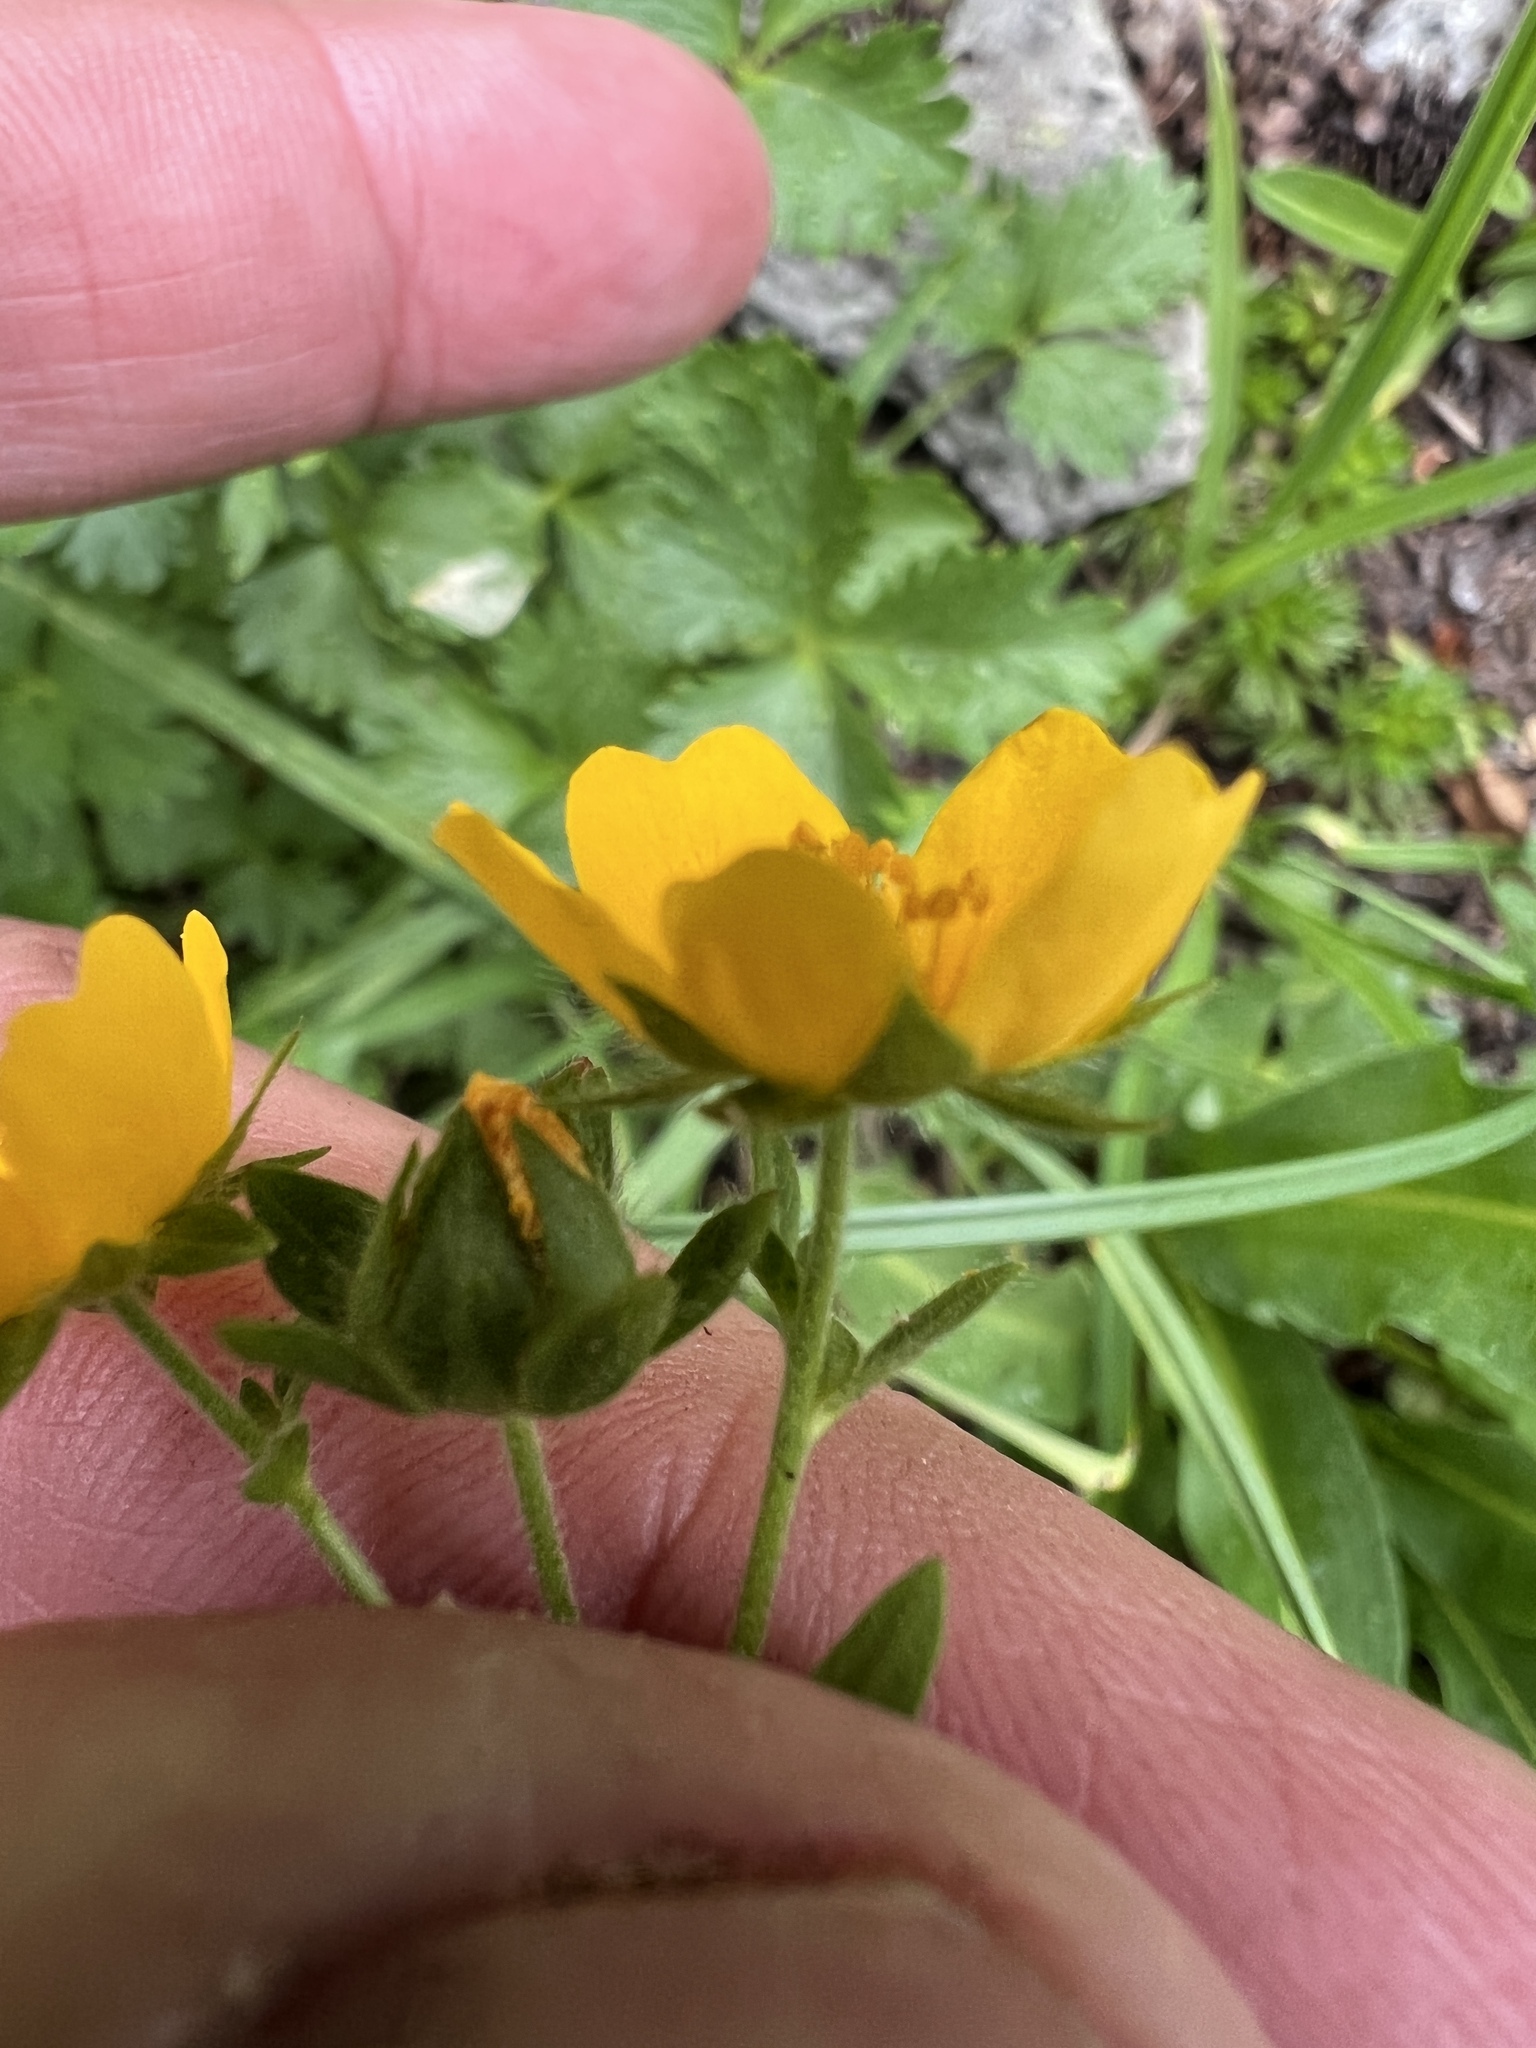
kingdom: Plantae
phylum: Tracheophyta
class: Magnoliopsida
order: Rosales
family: Rosaceae
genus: Potentilla
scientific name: Potentilla flabellifolia
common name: Mount rainier cinquefoil
